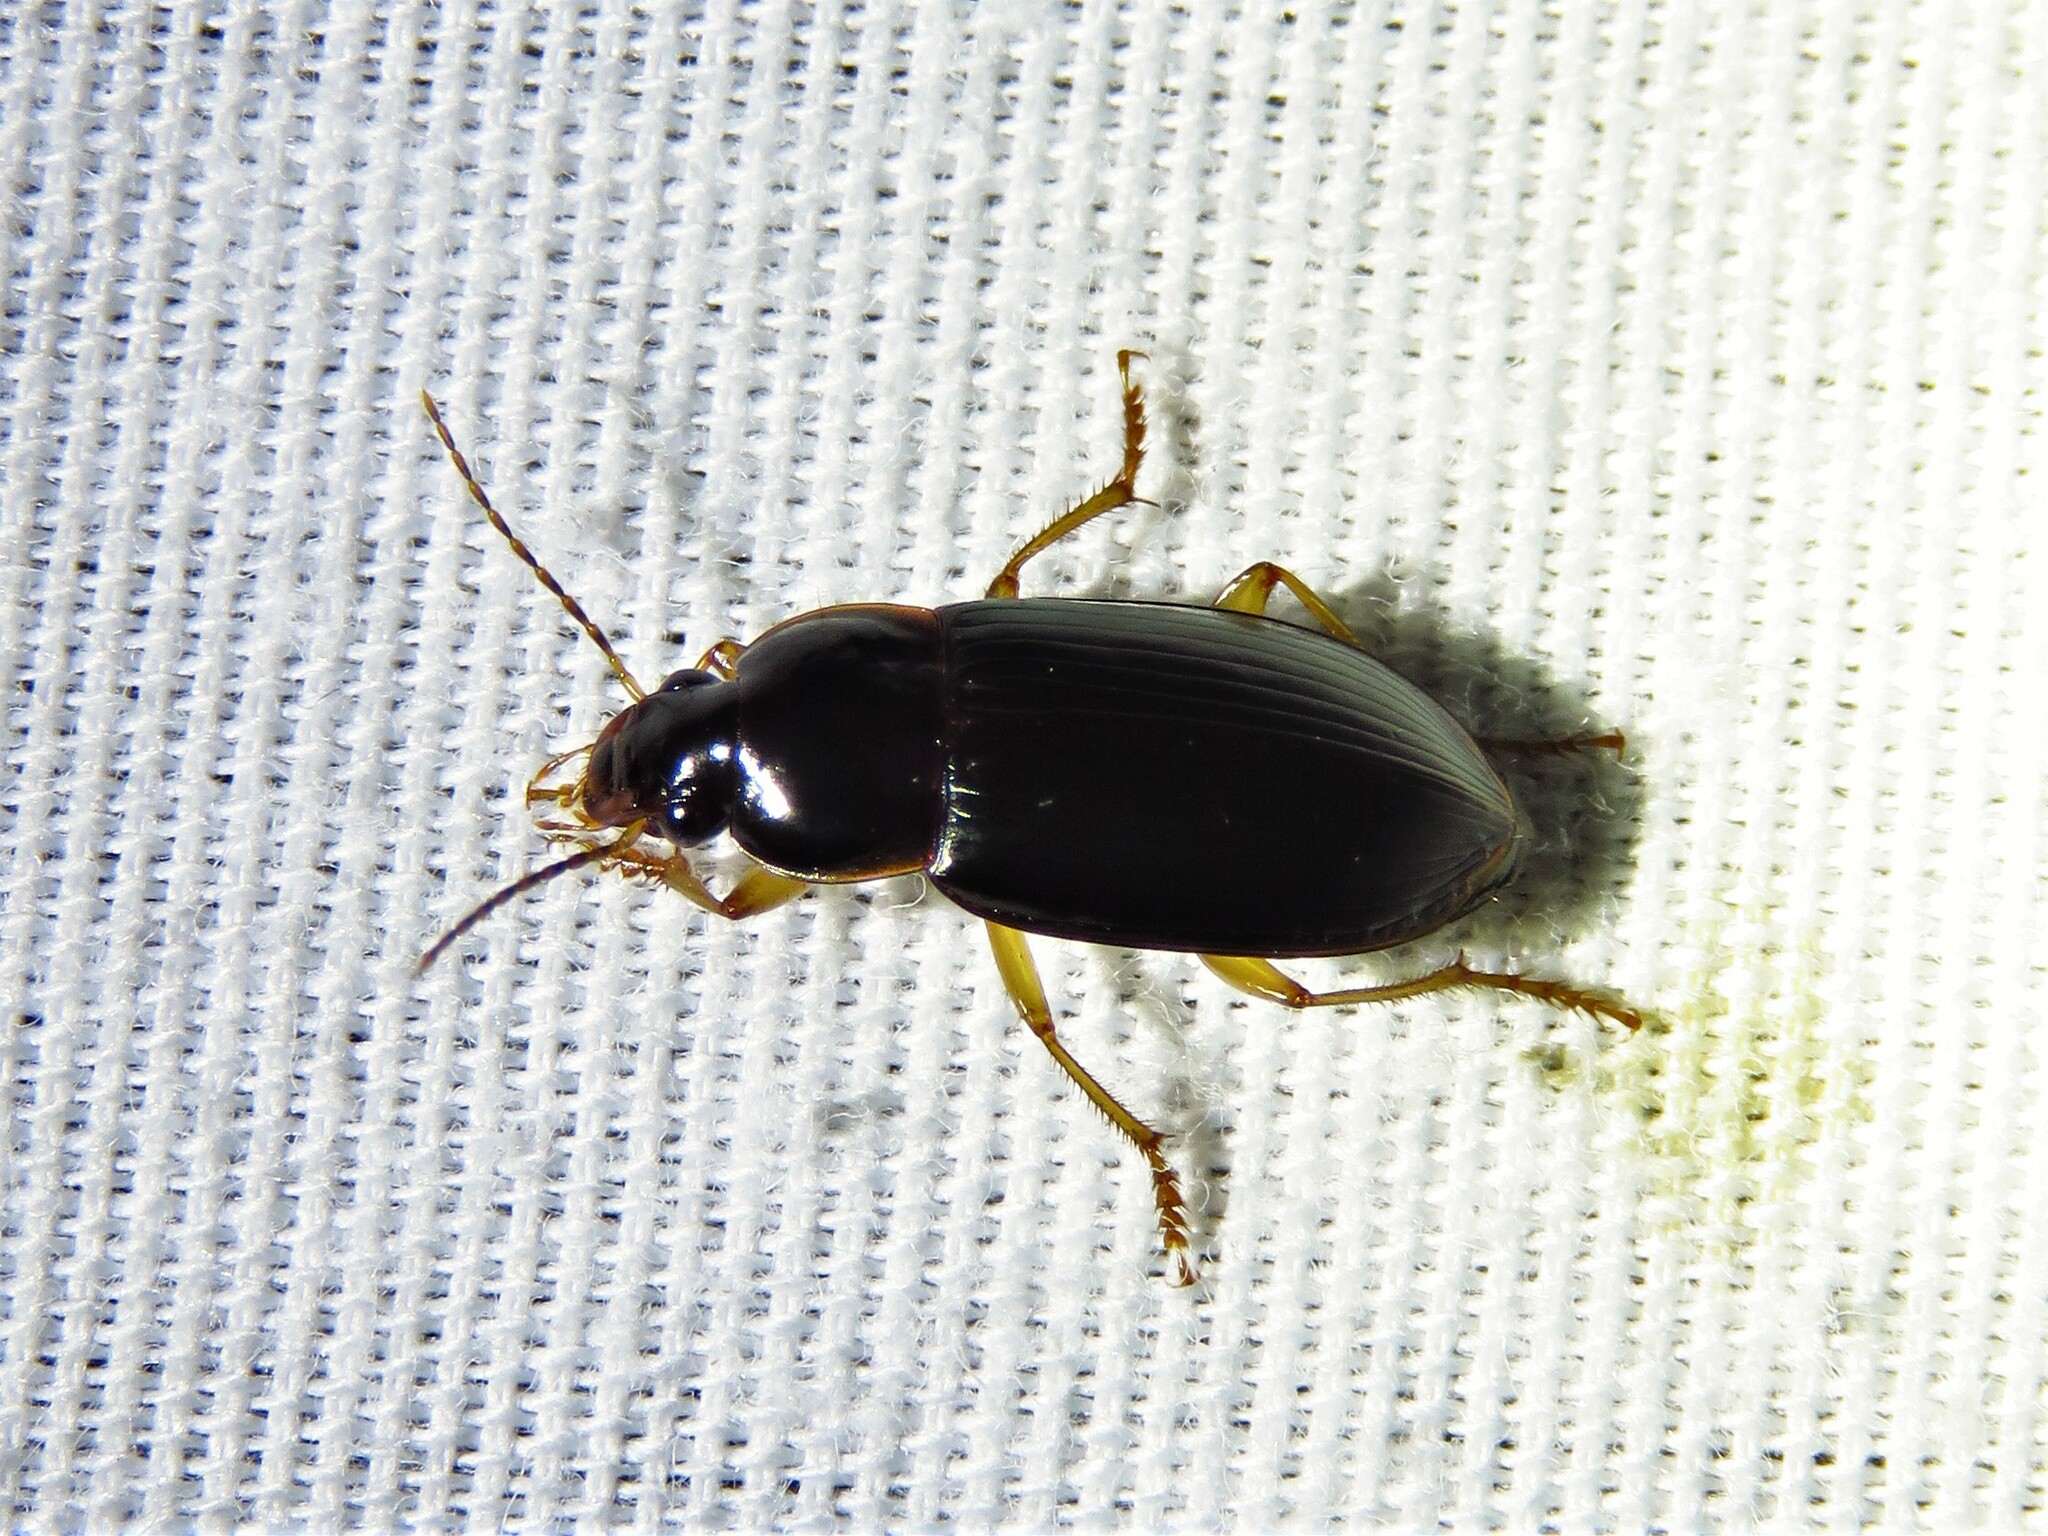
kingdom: Animalia
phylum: Arthropoda
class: Insecta
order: Coleoptera
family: Carabidae
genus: Notiobia
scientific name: Notiobia terminata
